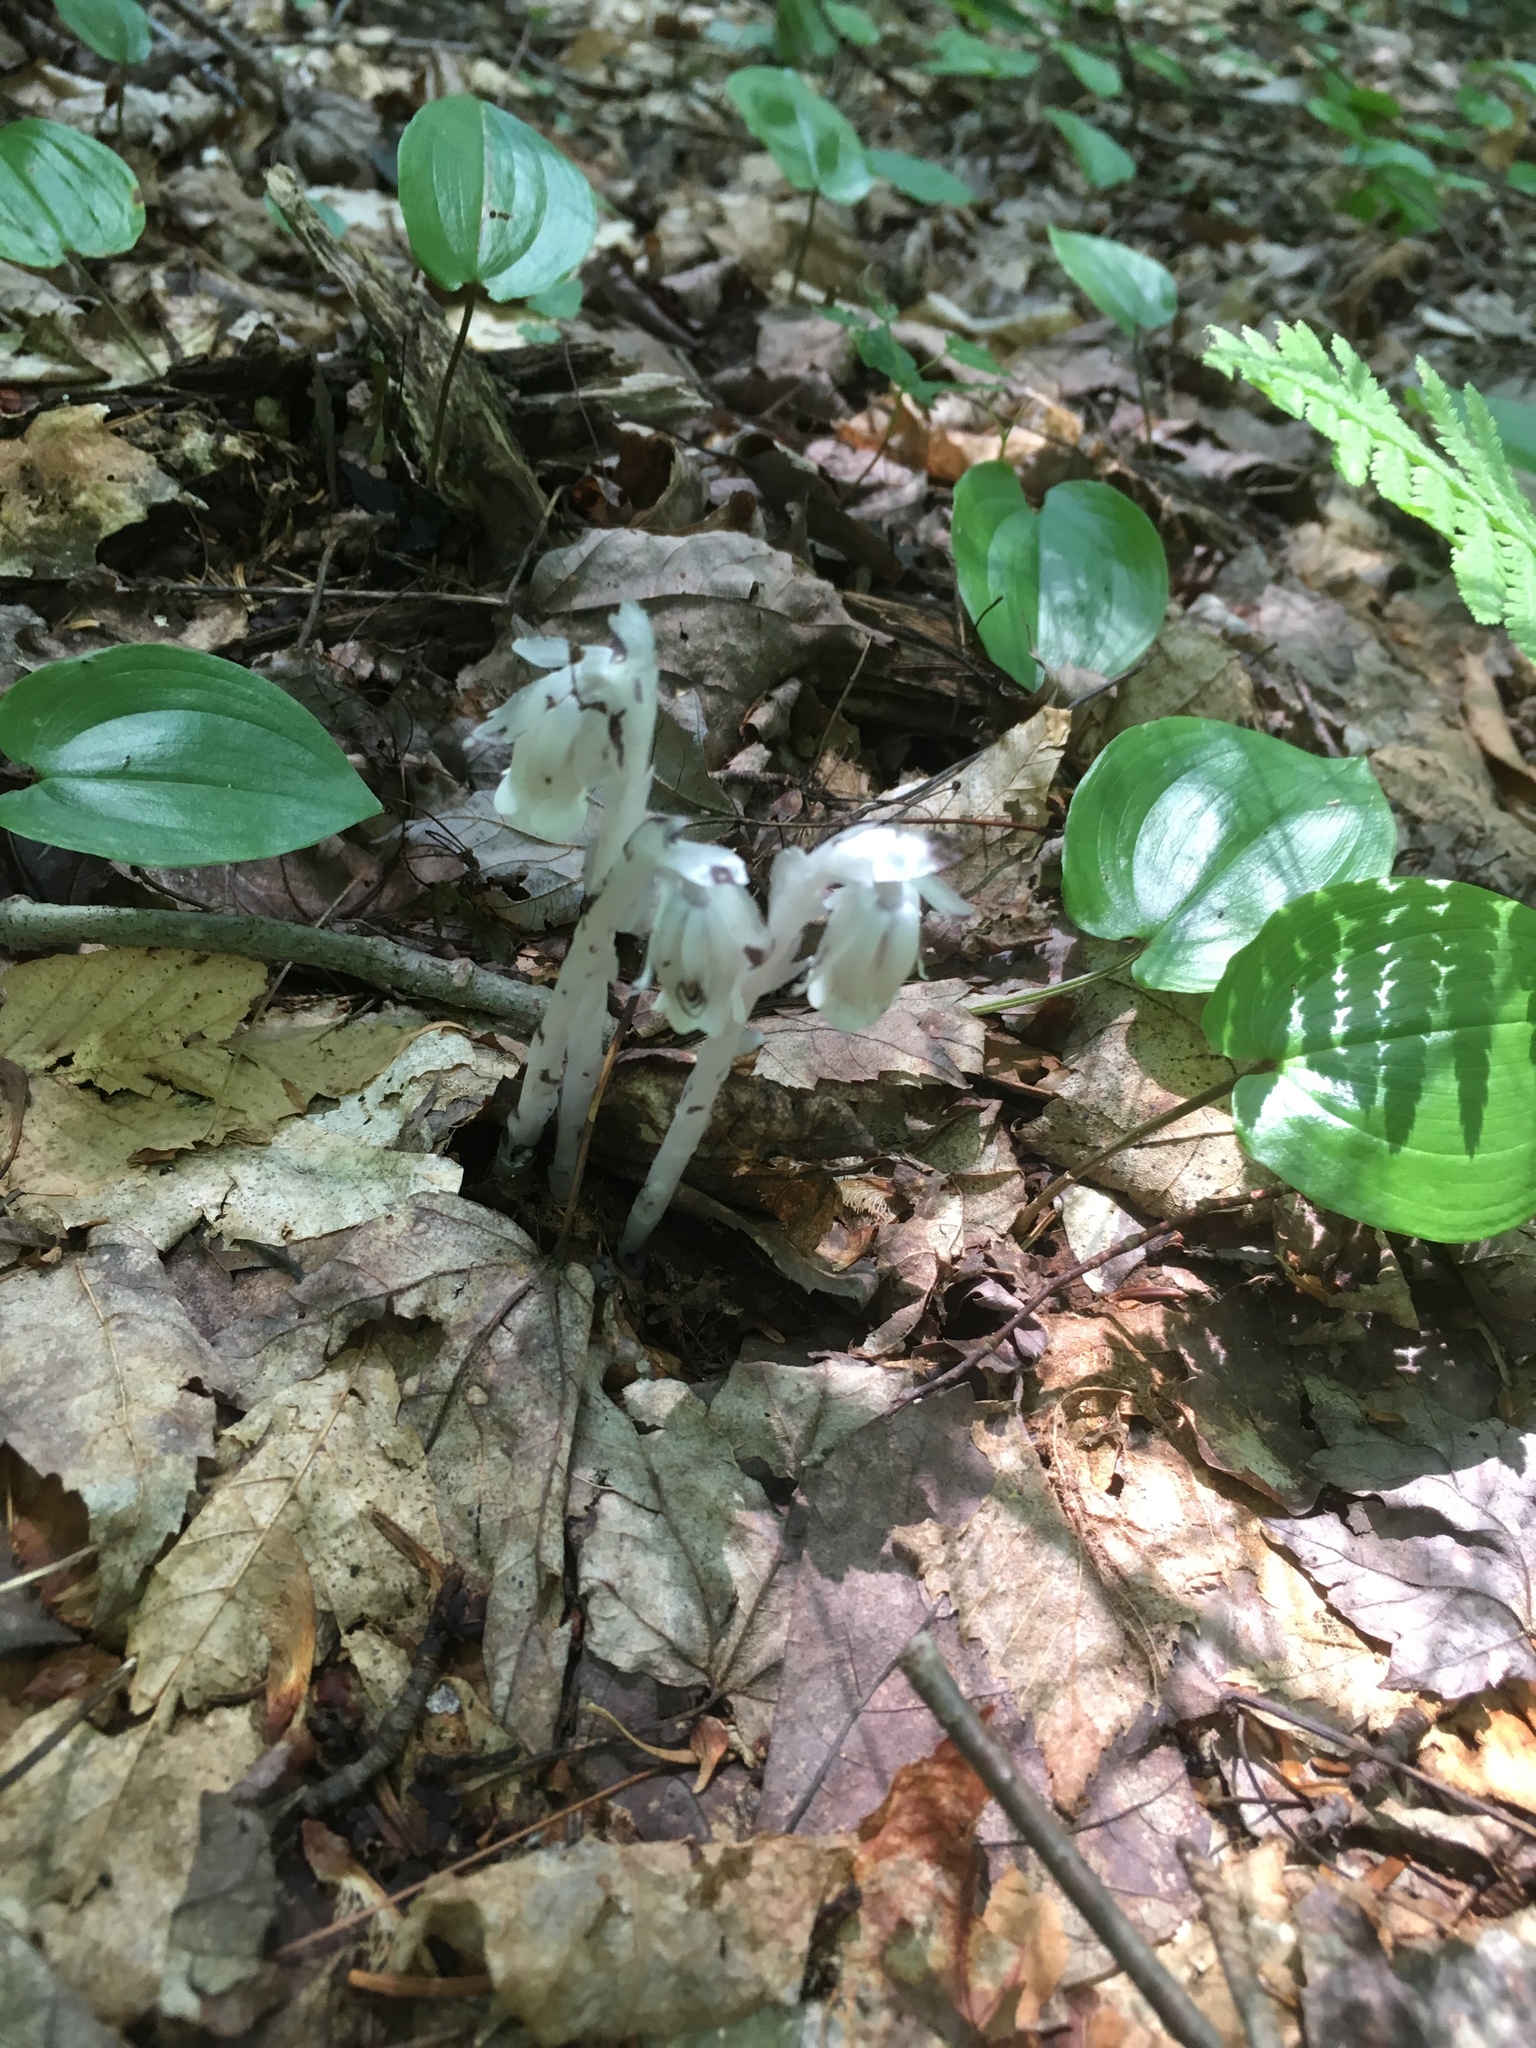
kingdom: Plantae
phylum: Tracheophyta
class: Magnoliopsida
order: Ericales
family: Ericaceae
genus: Monotropa
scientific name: Monotropa uniflora
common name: Convulsion root
